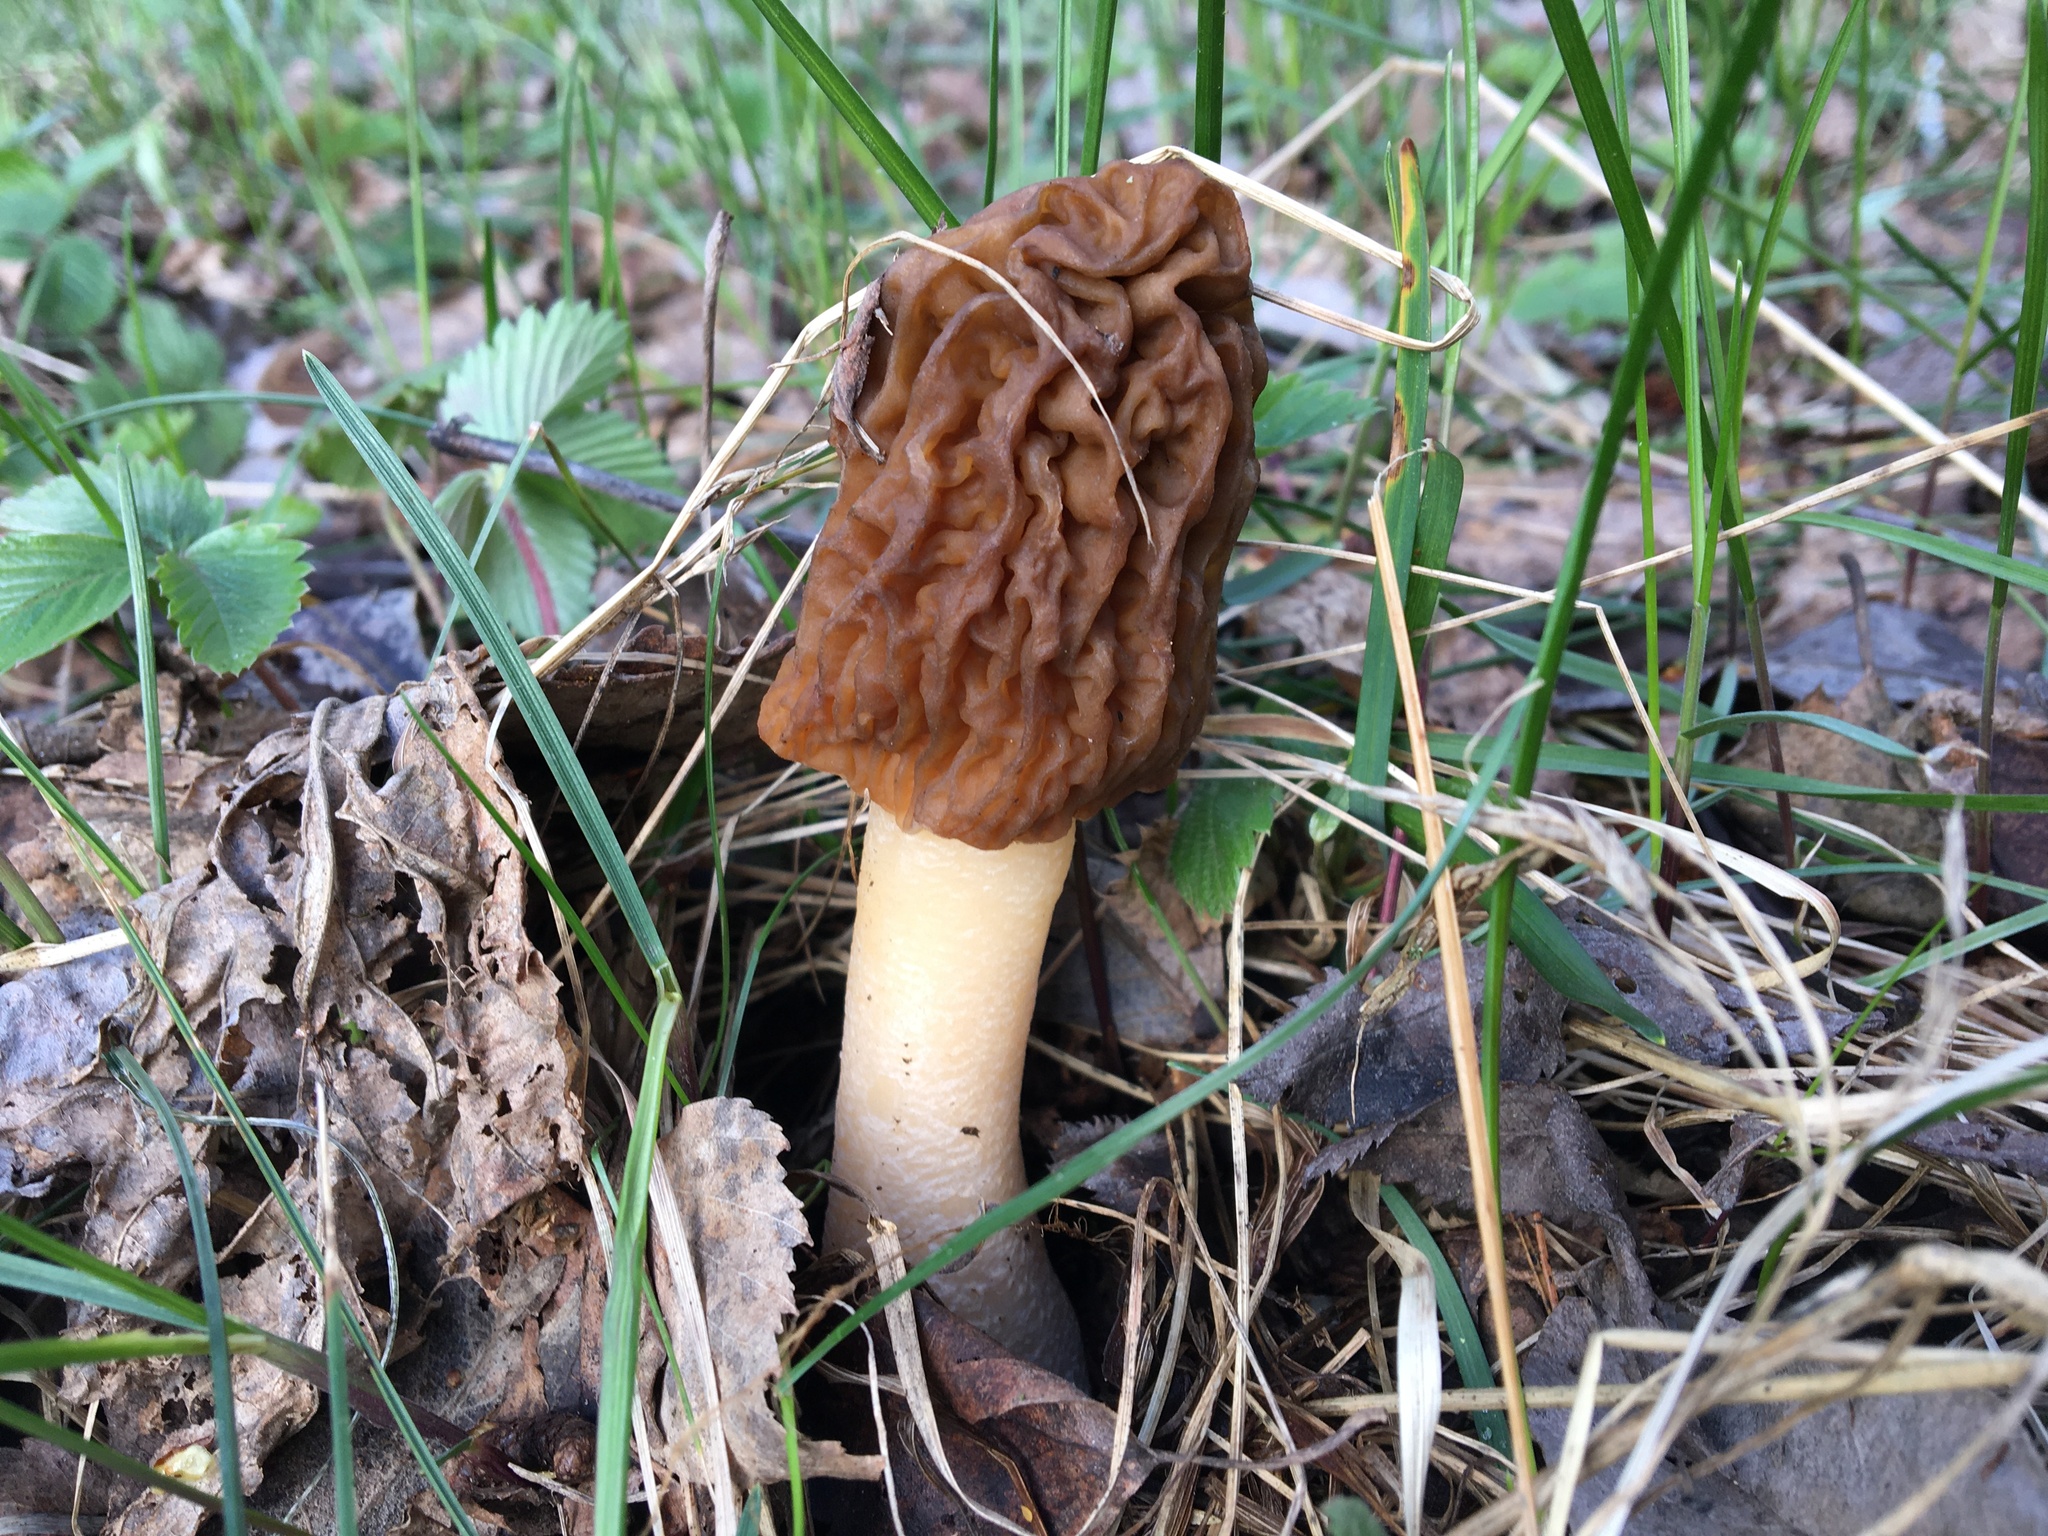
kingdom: Fungi
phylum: Ascomycota
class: Pezizomycetes
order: Pezizales
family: Morchellaceae
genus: Verpa
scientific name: Verpa bohemica
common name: Wrinkled thimble morel
